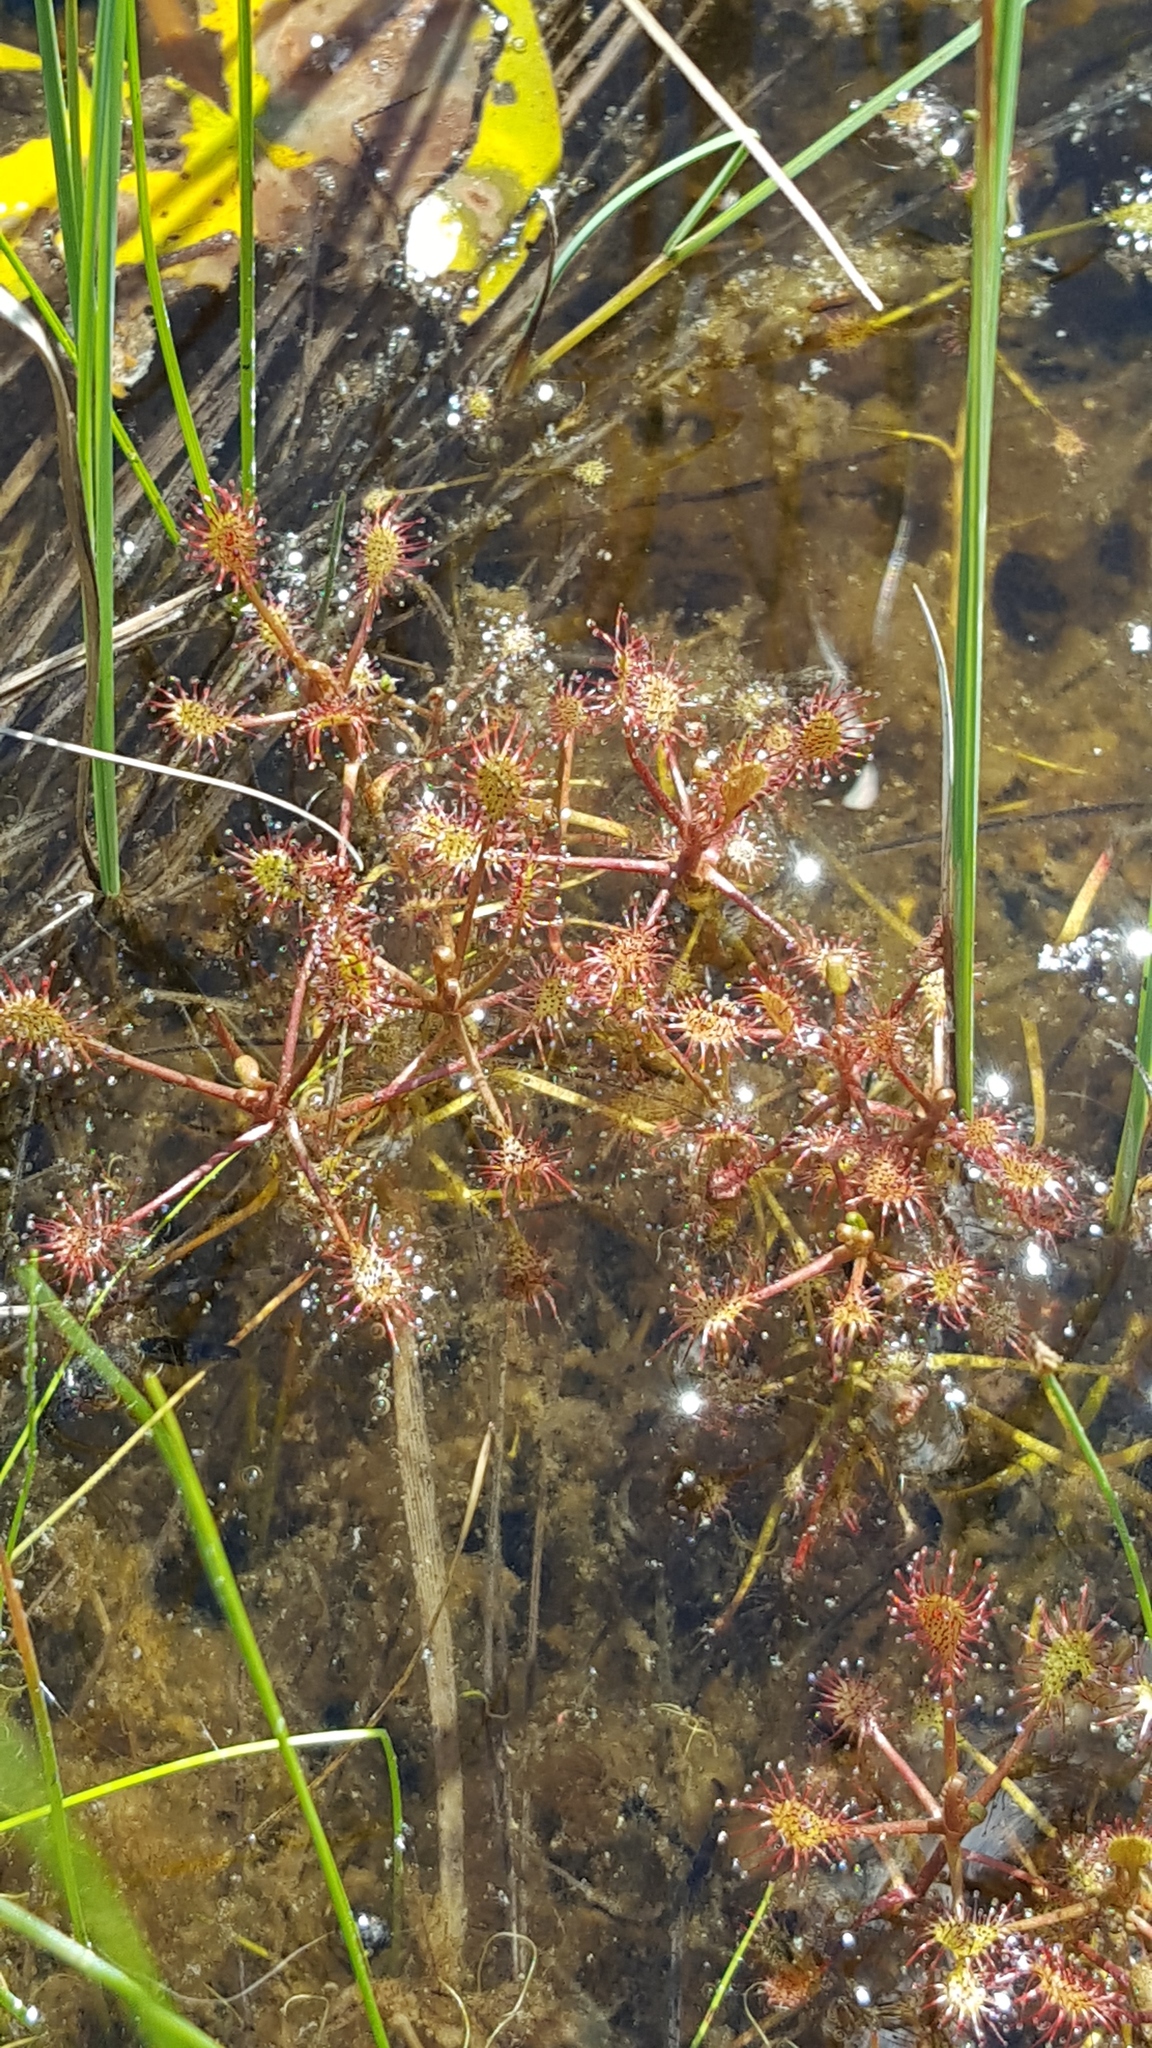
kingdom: Plantae
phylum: Tracheophyta
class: Magnoliopsida
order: Caryophyllales
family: Droseraceae
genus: Drosera
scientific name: Drosera intermedia
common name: Oblong-leaved sundew
